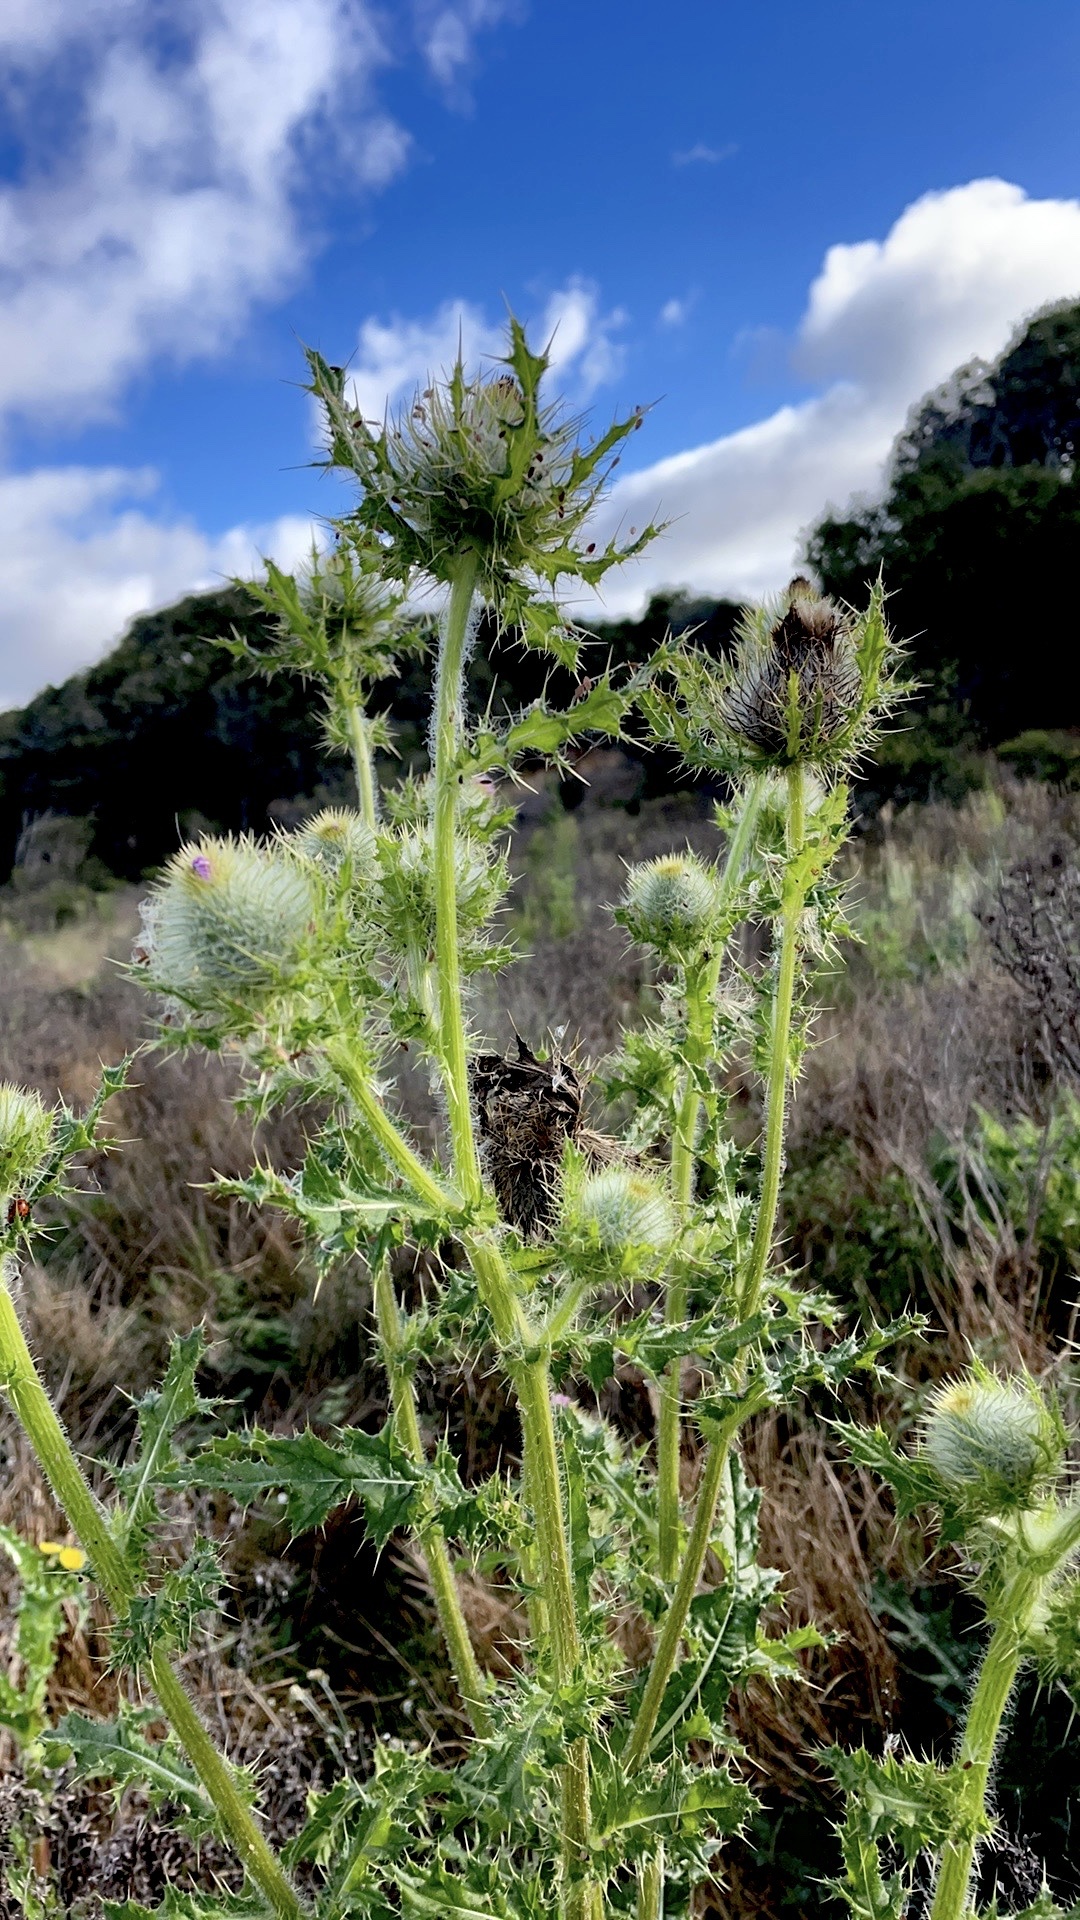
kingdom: Plantae
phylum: Tracheophyta
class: Magnoliopsida
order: Asterales
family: Asteraceae
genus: Cirsium
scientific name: Cirsium brevistylum
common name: Indian thistle
